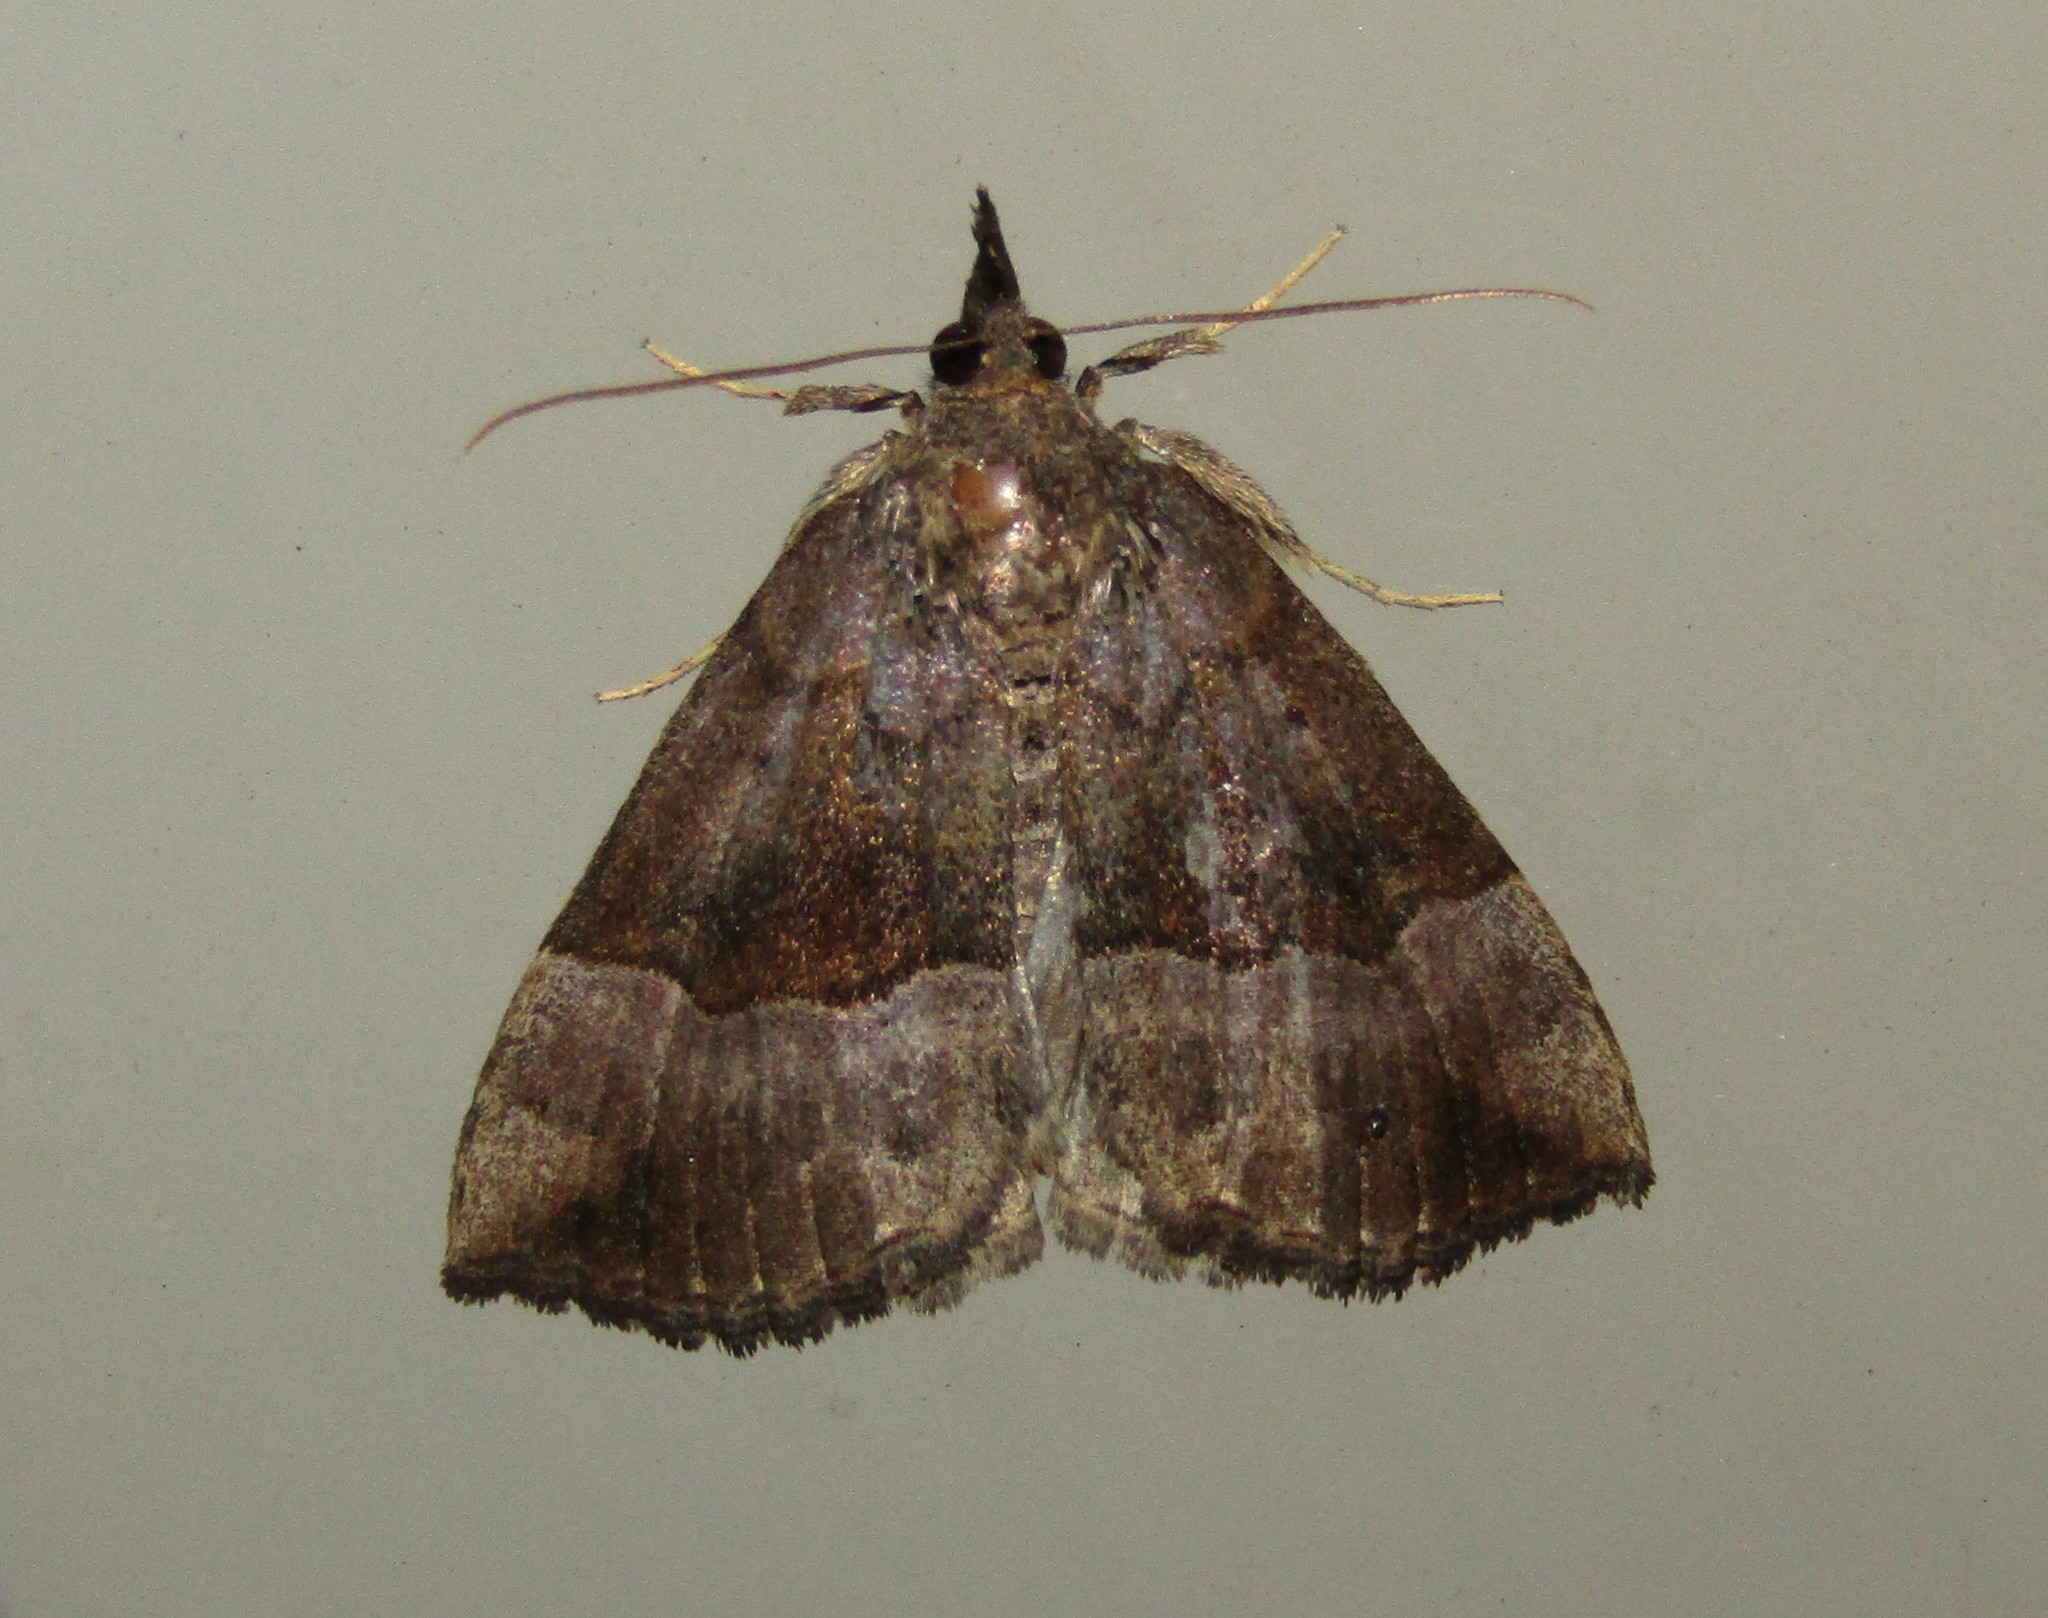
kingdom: Animalia
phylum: Arthropoda
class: Insecta
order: Lepidoptera
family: Erebidae
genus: Hypena
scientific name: Hypena madefactalis
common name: Gray-edged snout
